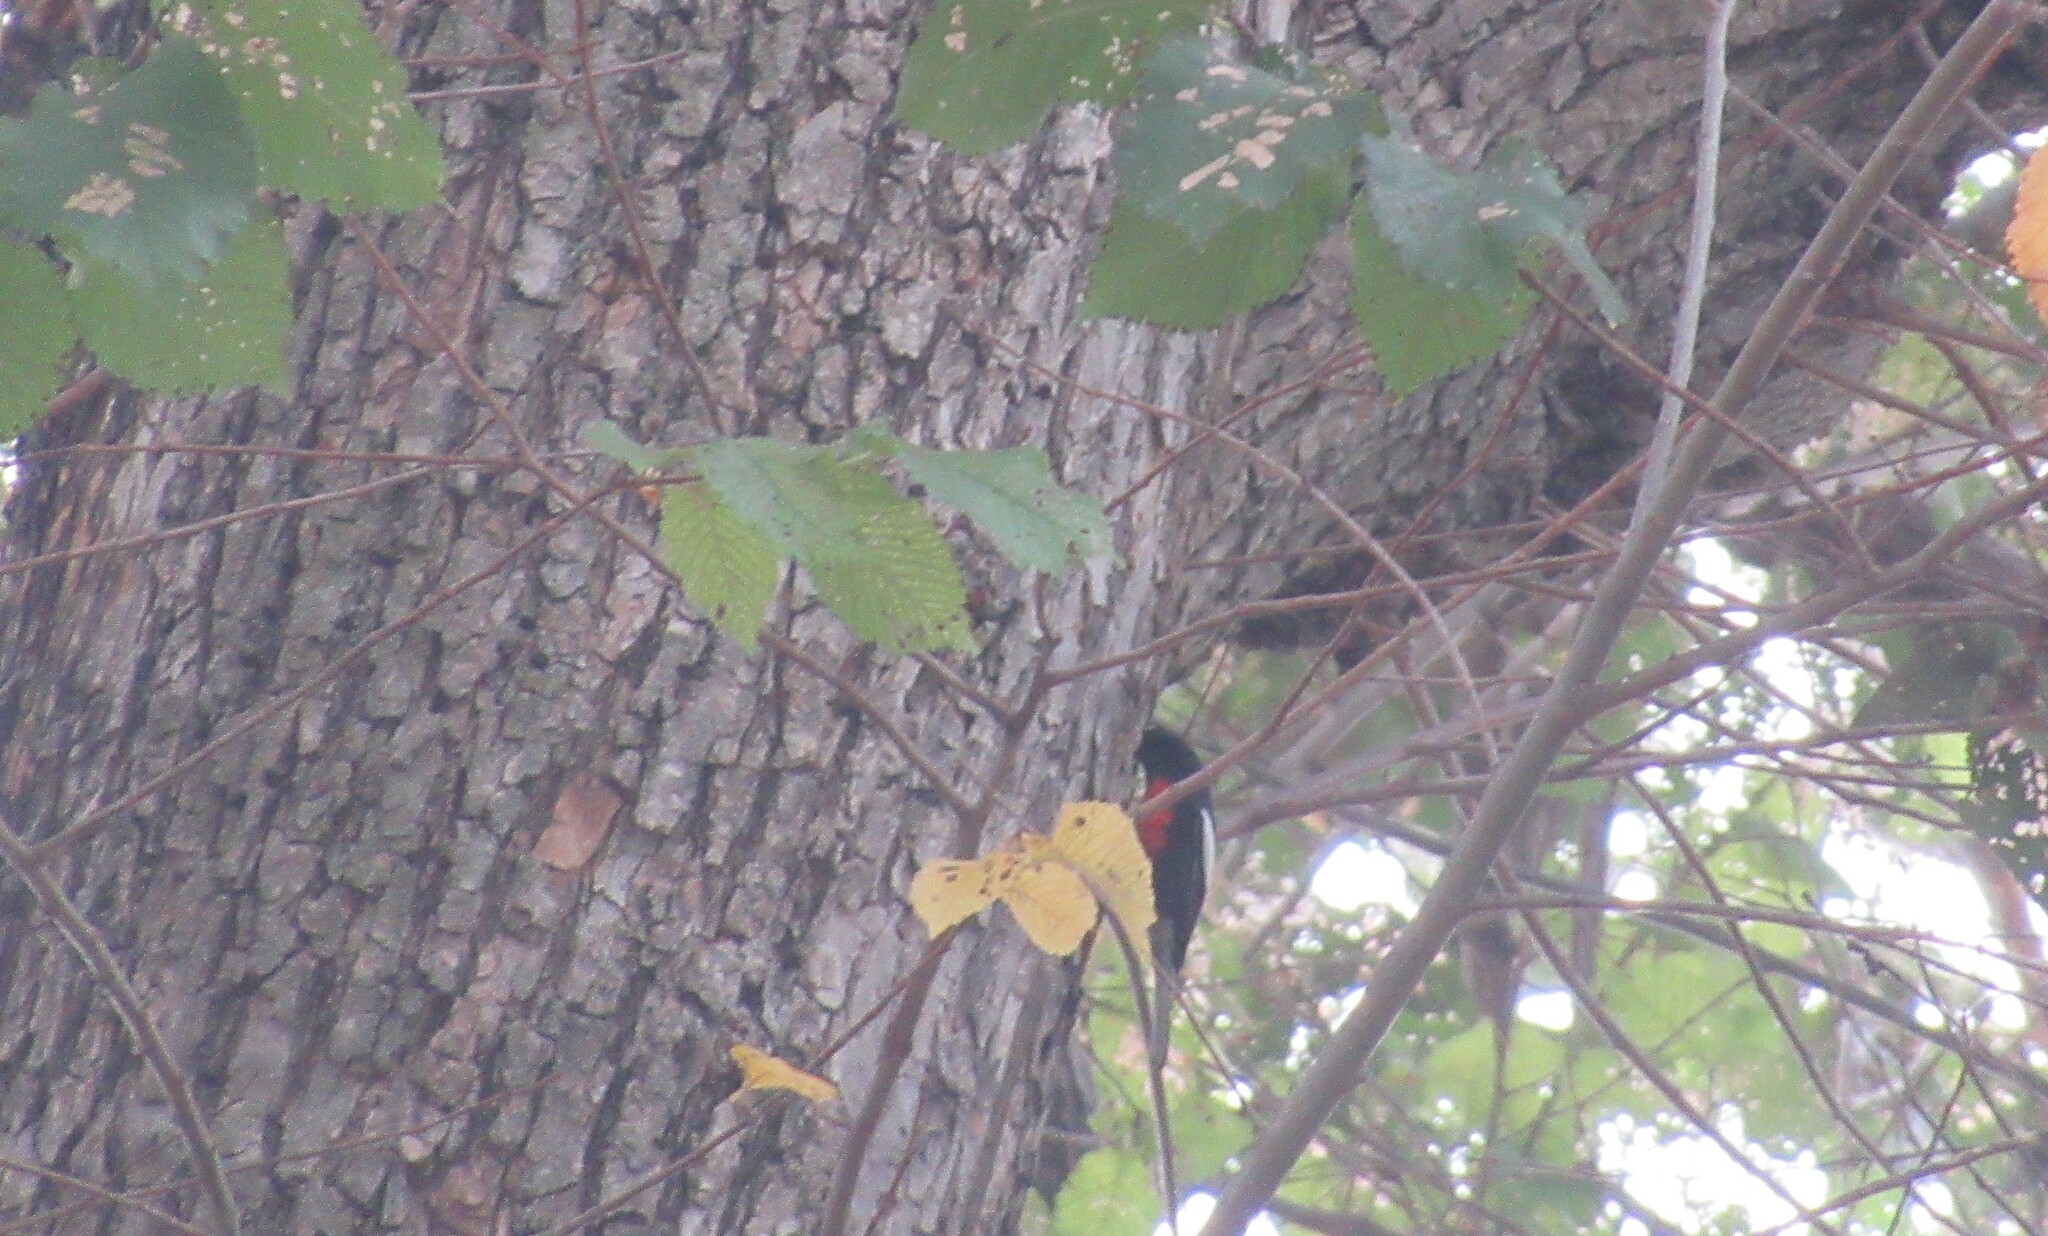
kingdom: Animalia
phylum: Chordata
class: Aves
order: Passeriformes
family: Parulidae
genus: Myioborus
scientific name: Myioborus pictus
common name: Painted whitestart
